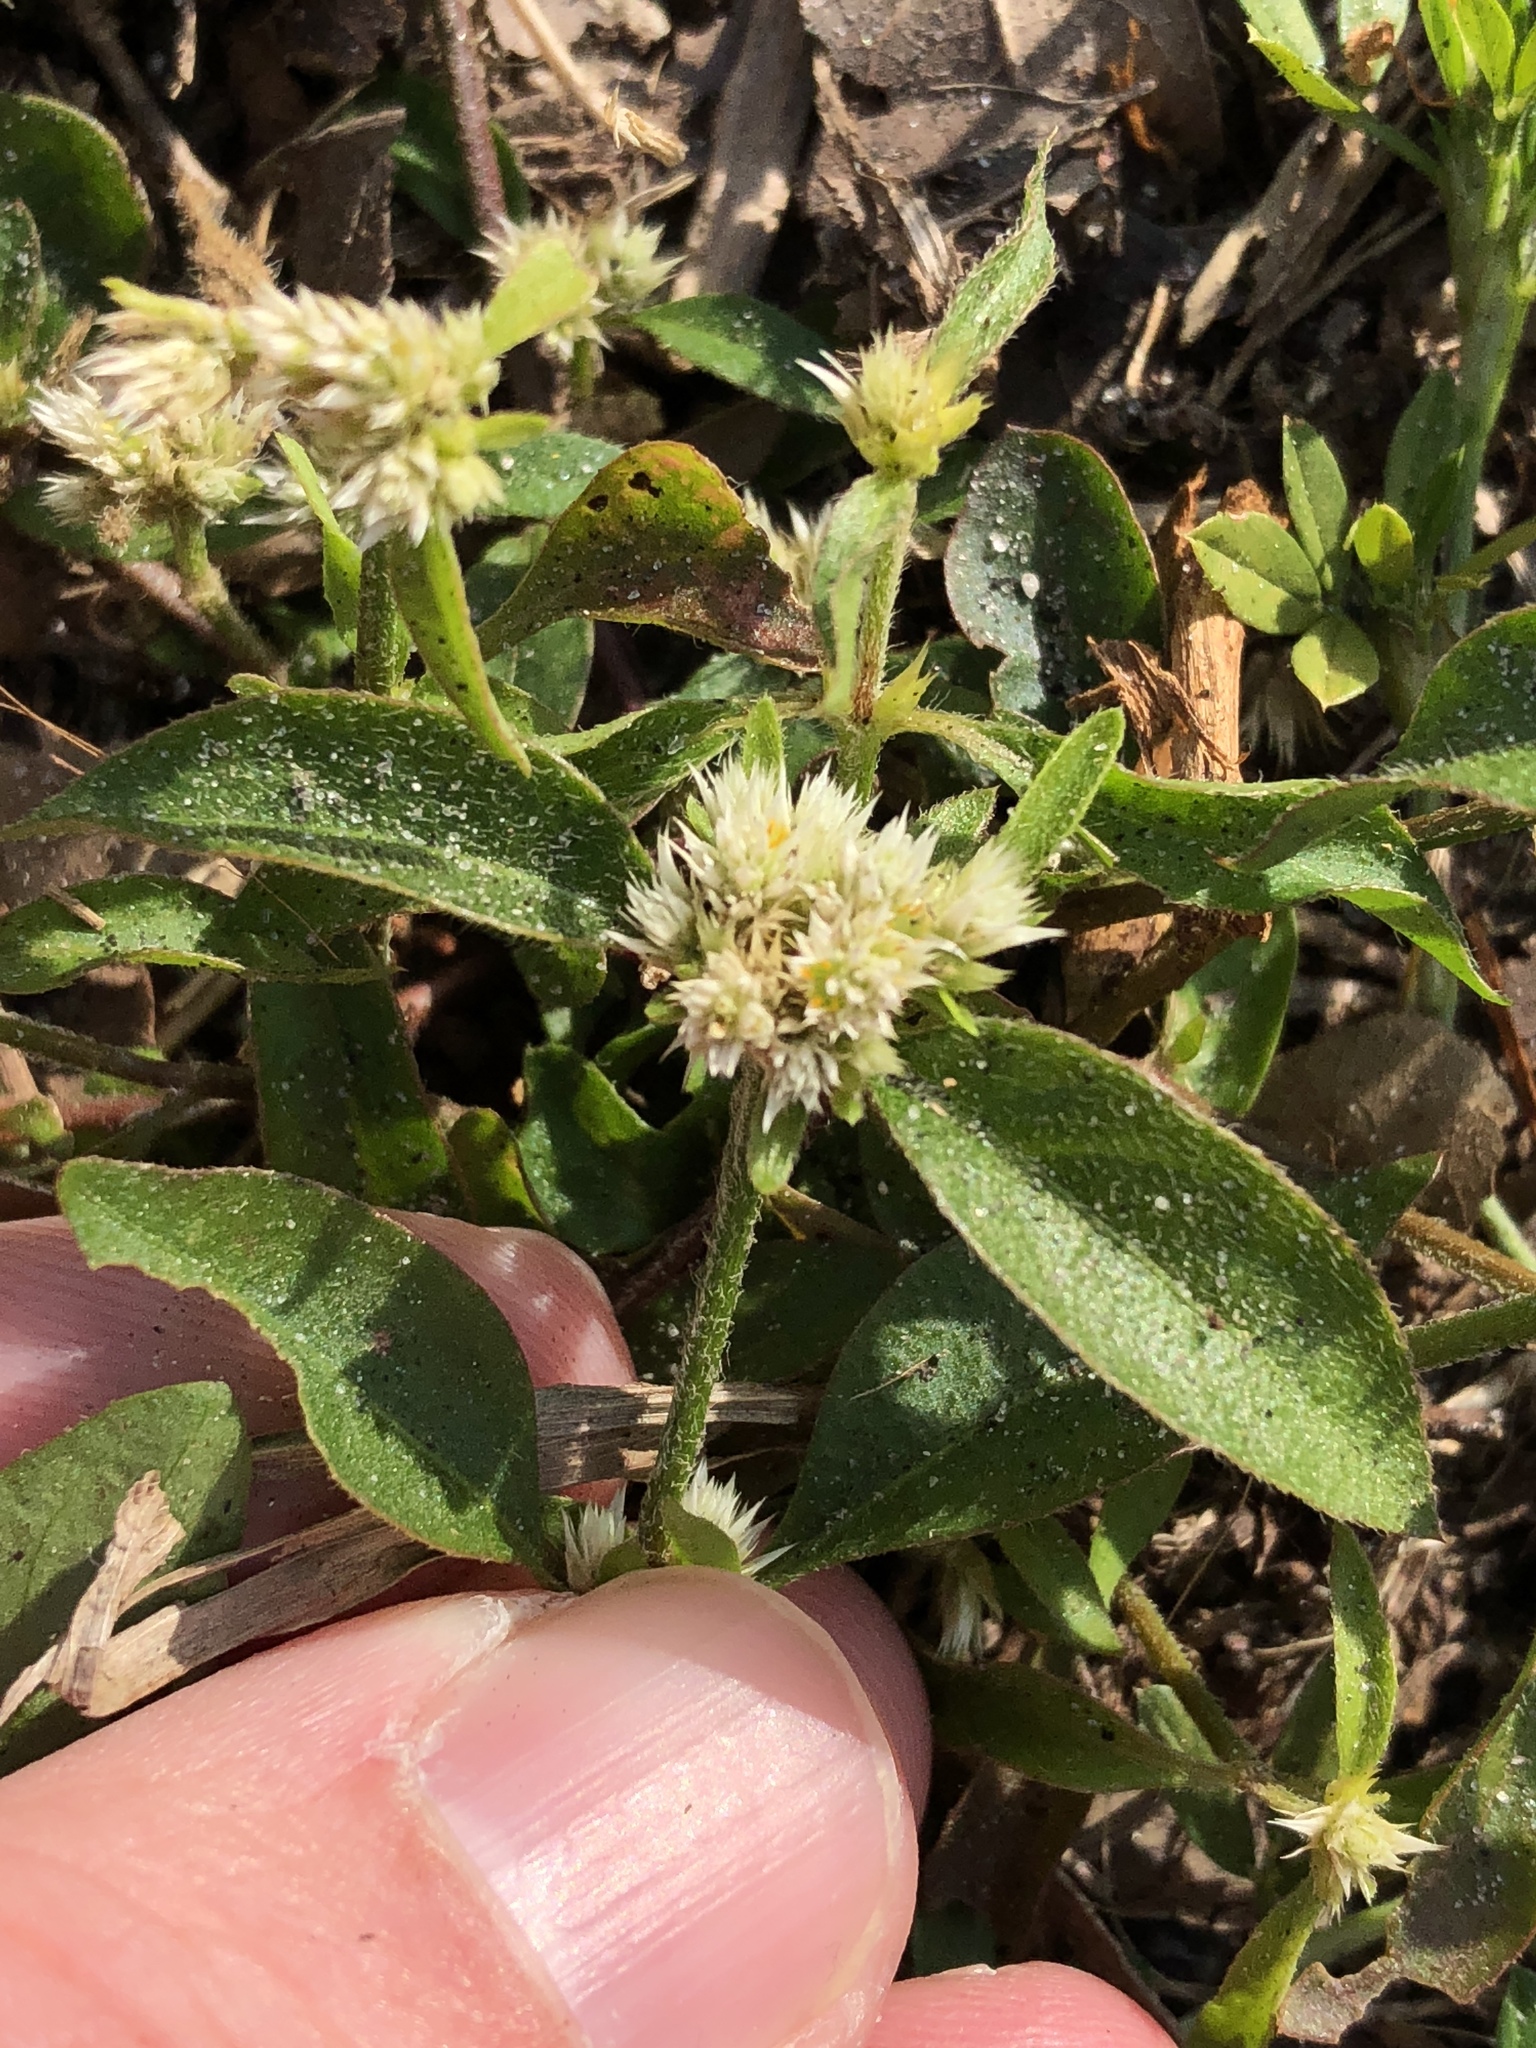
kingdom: Plantae
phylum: Tracheophyta
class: Magnoliopsida
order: Caryophyllales
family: Amaranthaceae
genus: Alternanthera
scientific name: Alternanthera paronychioides
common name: Smooth joyweed
